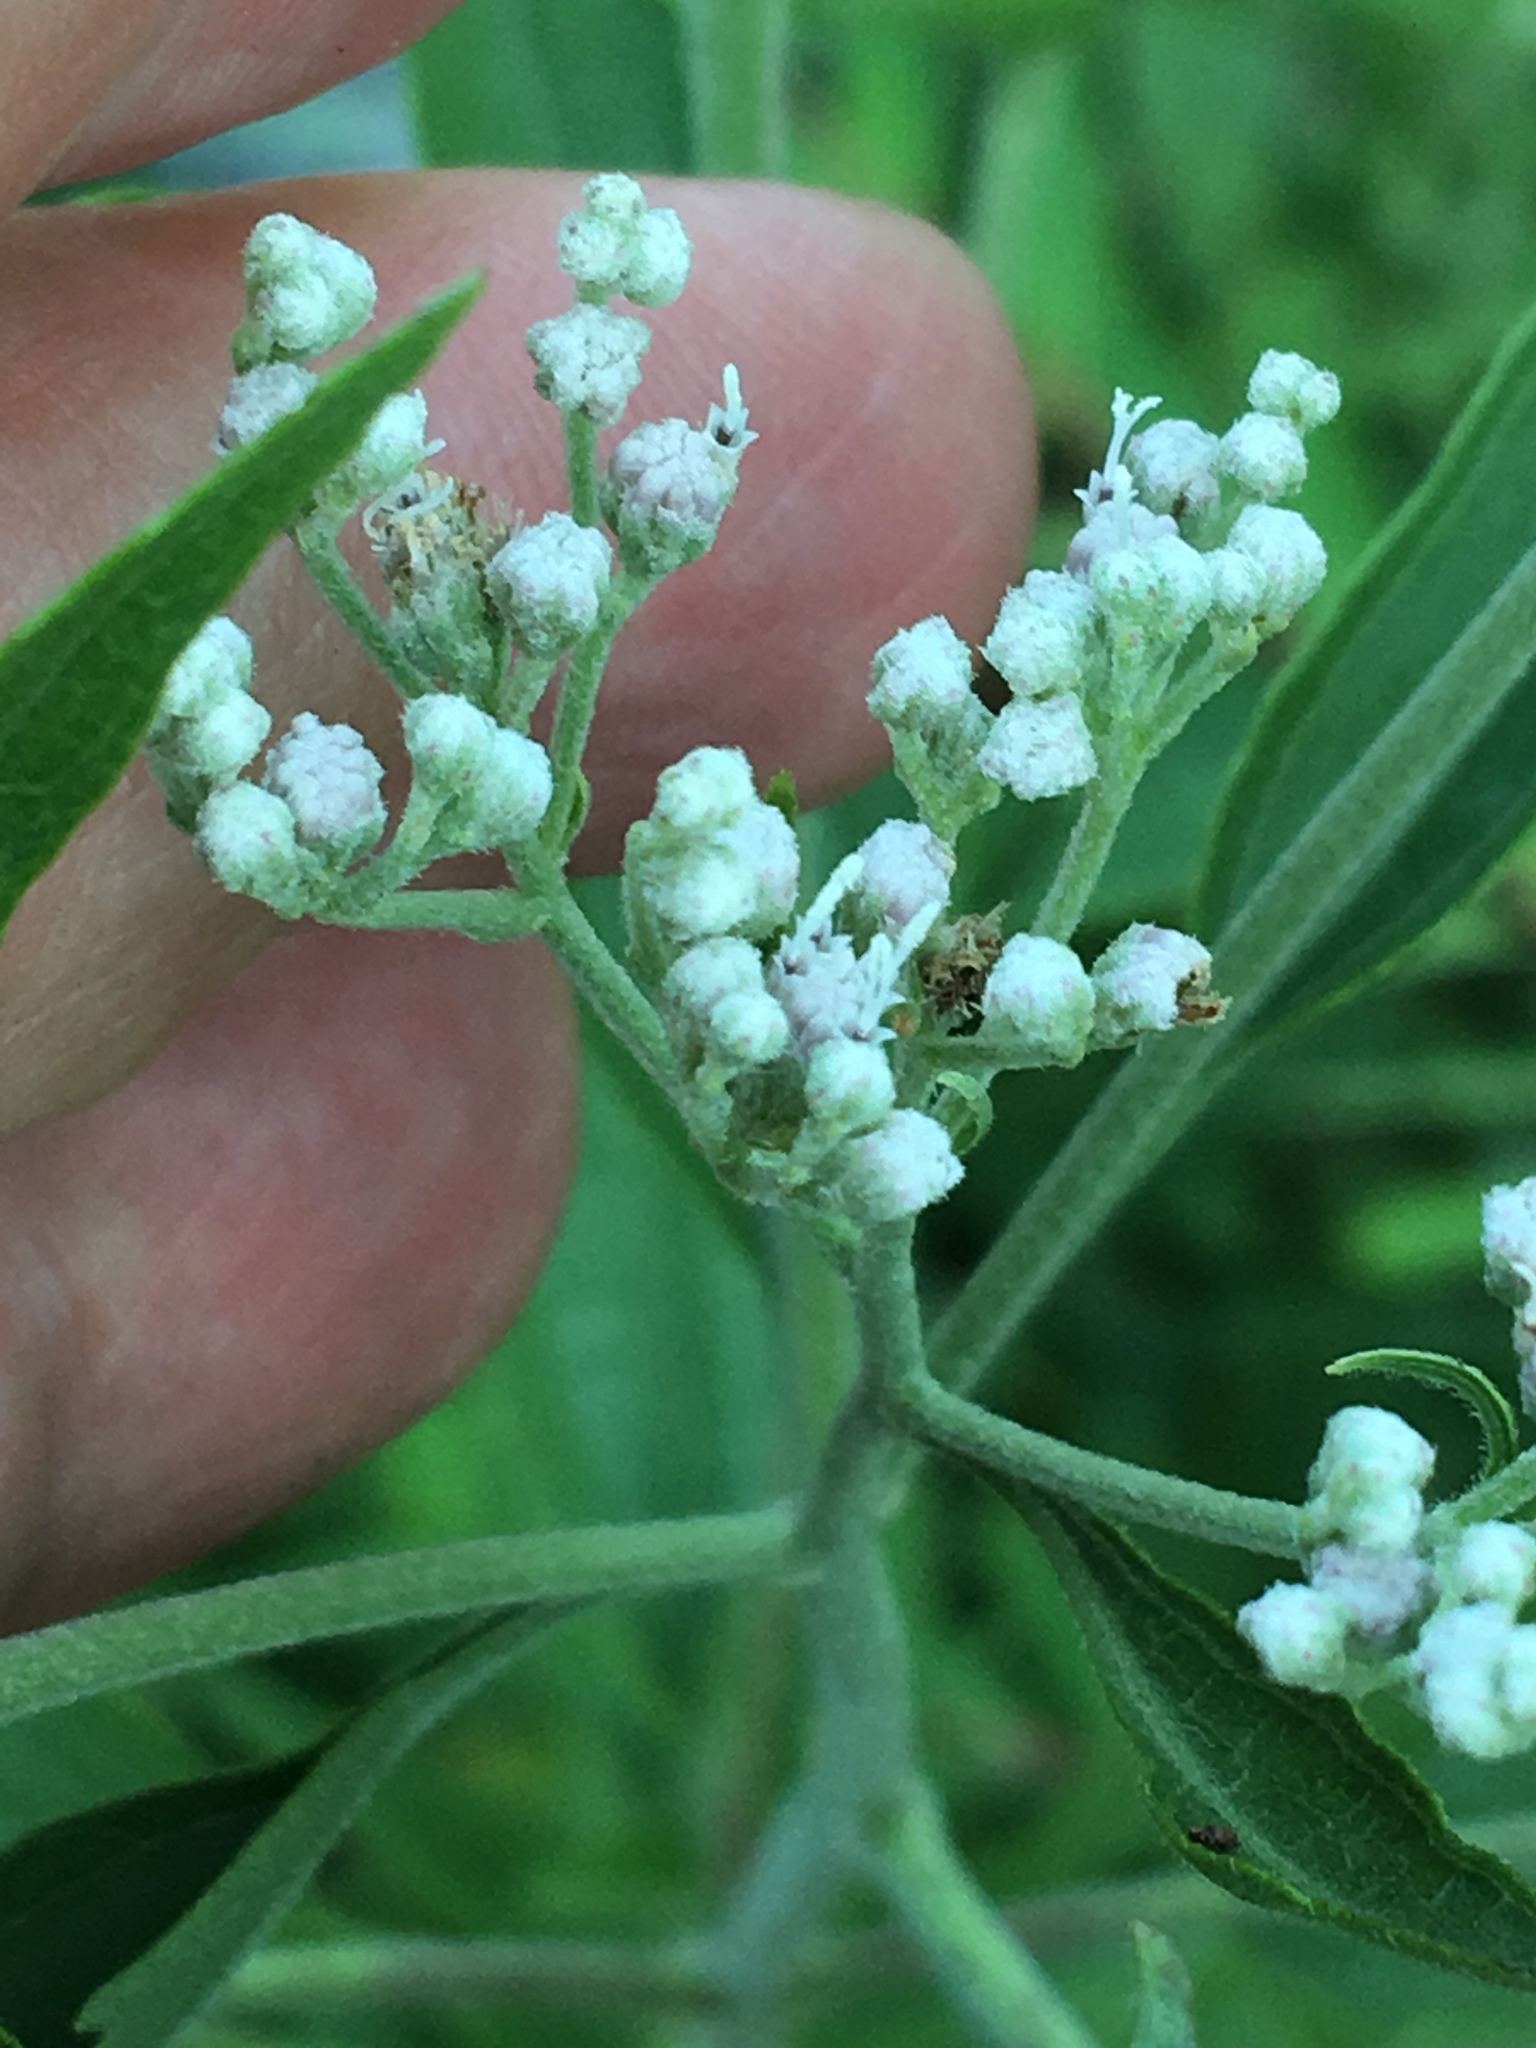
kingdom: Plantae
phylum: Tracheophyta
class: Magnoliopsida
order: Asterales
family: Asteraceae
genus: Eupatorium
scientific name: Eupatorium serotinum
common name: Late boneset
